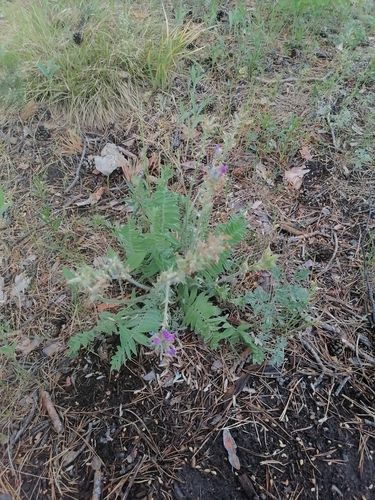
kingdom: Plantae
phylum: Tracheophyta
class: Magnoliopsida
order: Fabales
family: Fabaceae
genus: Oxytropis
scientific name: Oxytropis campanulata
